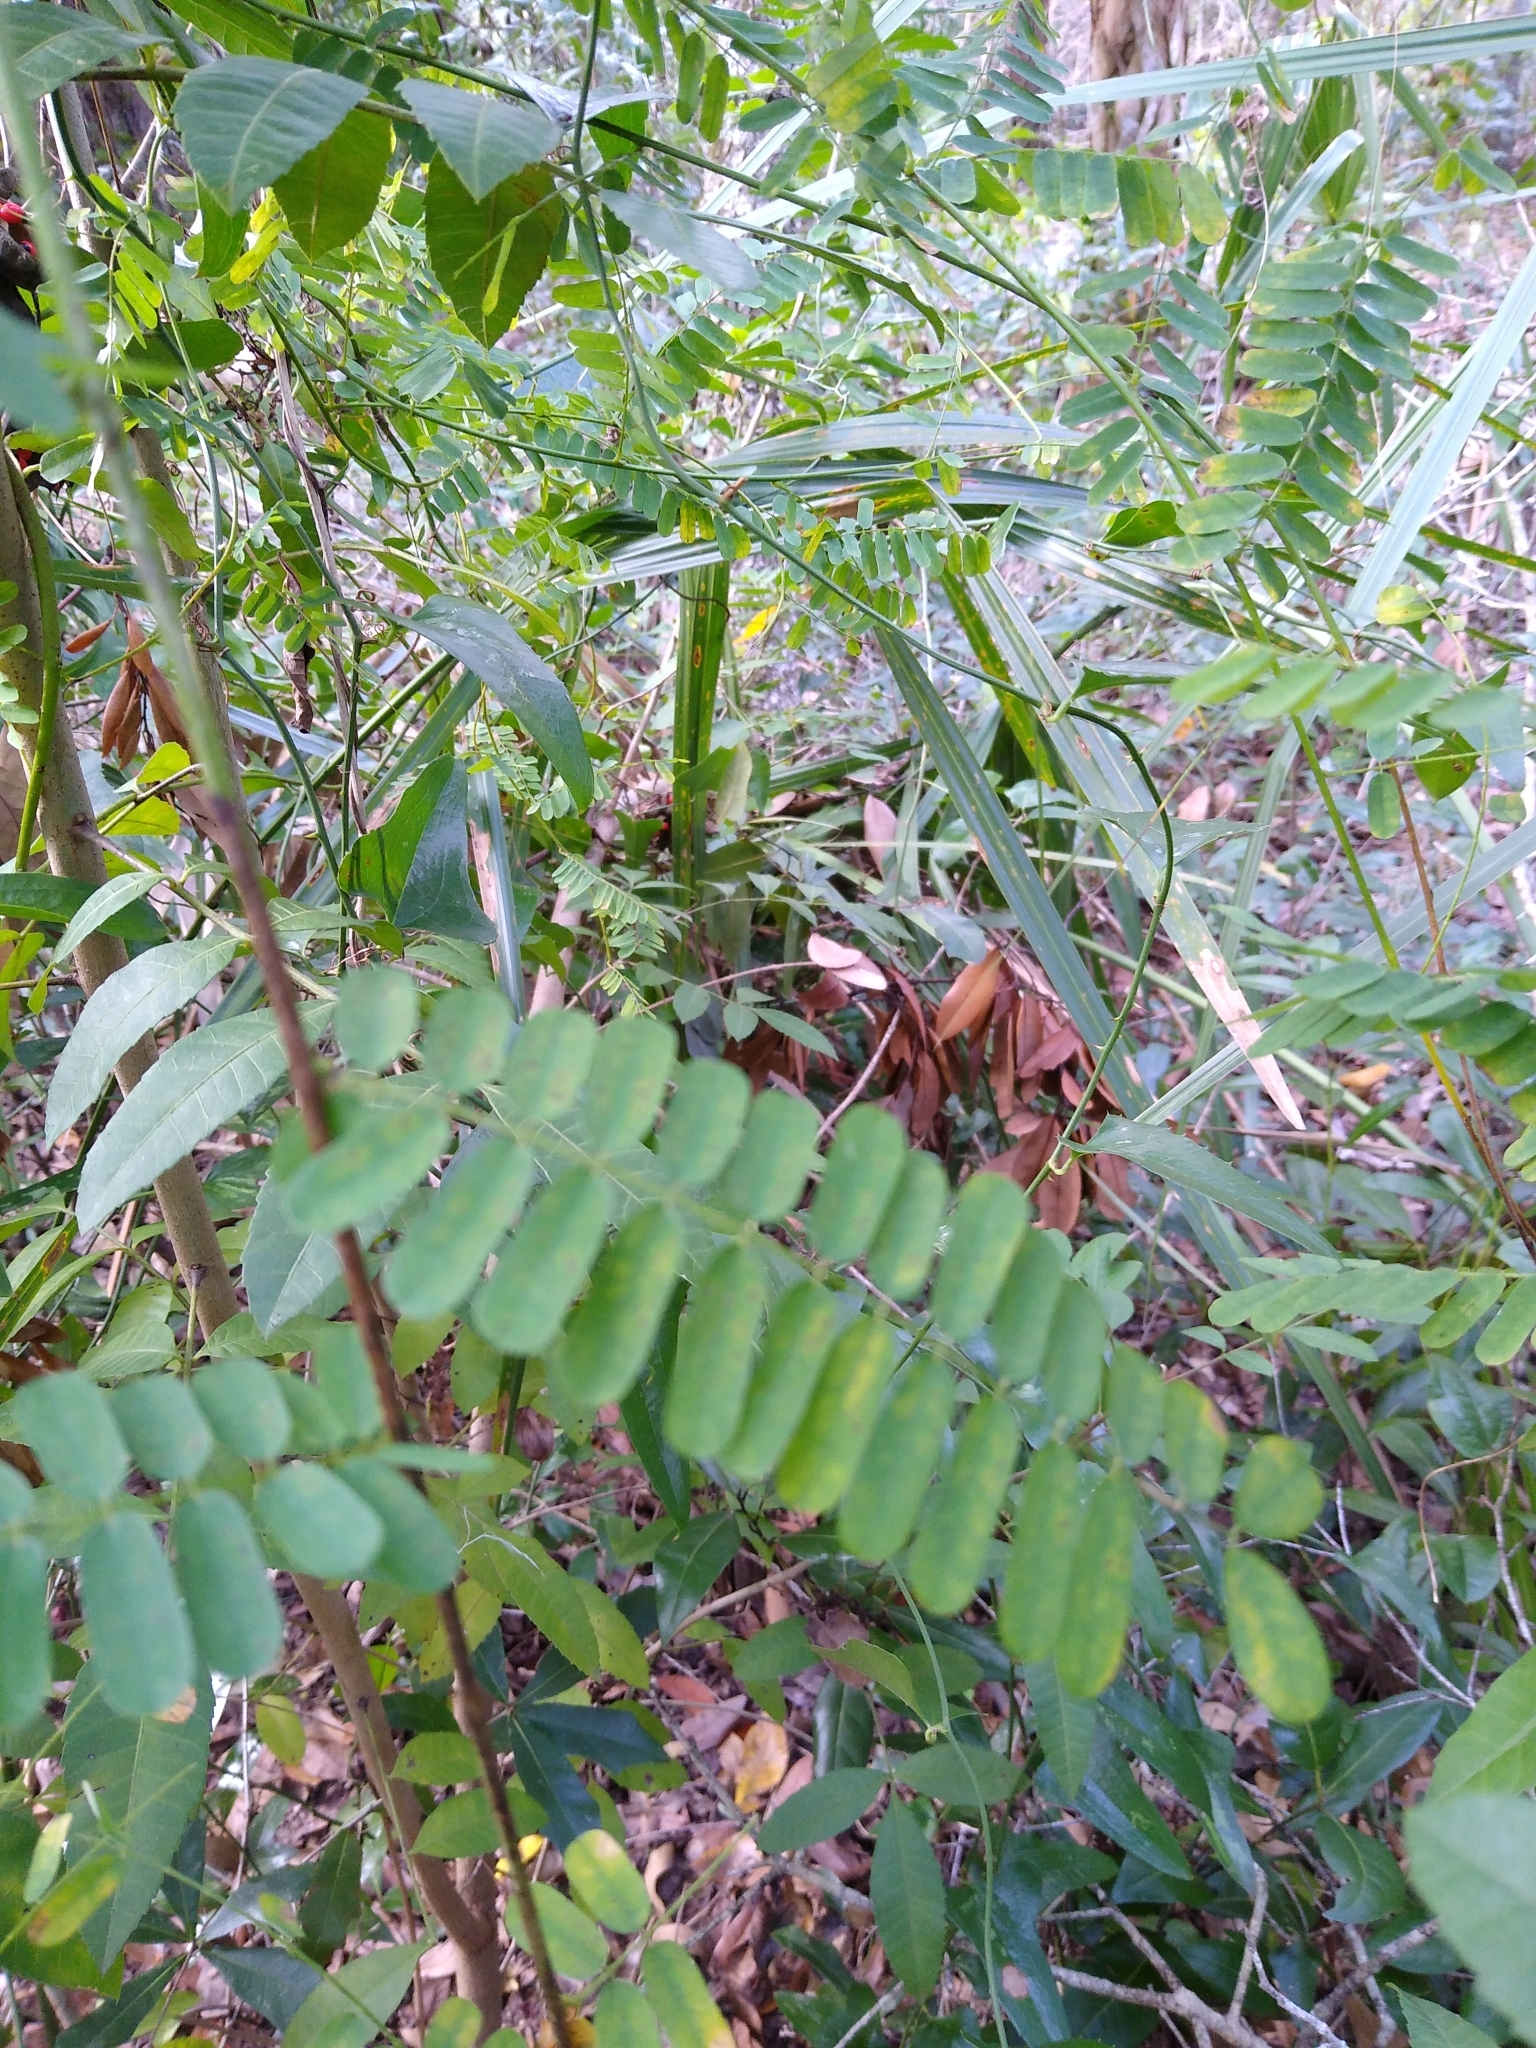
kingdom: Plantae
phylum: Tracheophyta
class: Magnoliopsida
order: Fabales
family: Fabaceae
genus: Abrus
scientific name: Abrus precatorius
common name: Rosarypea
